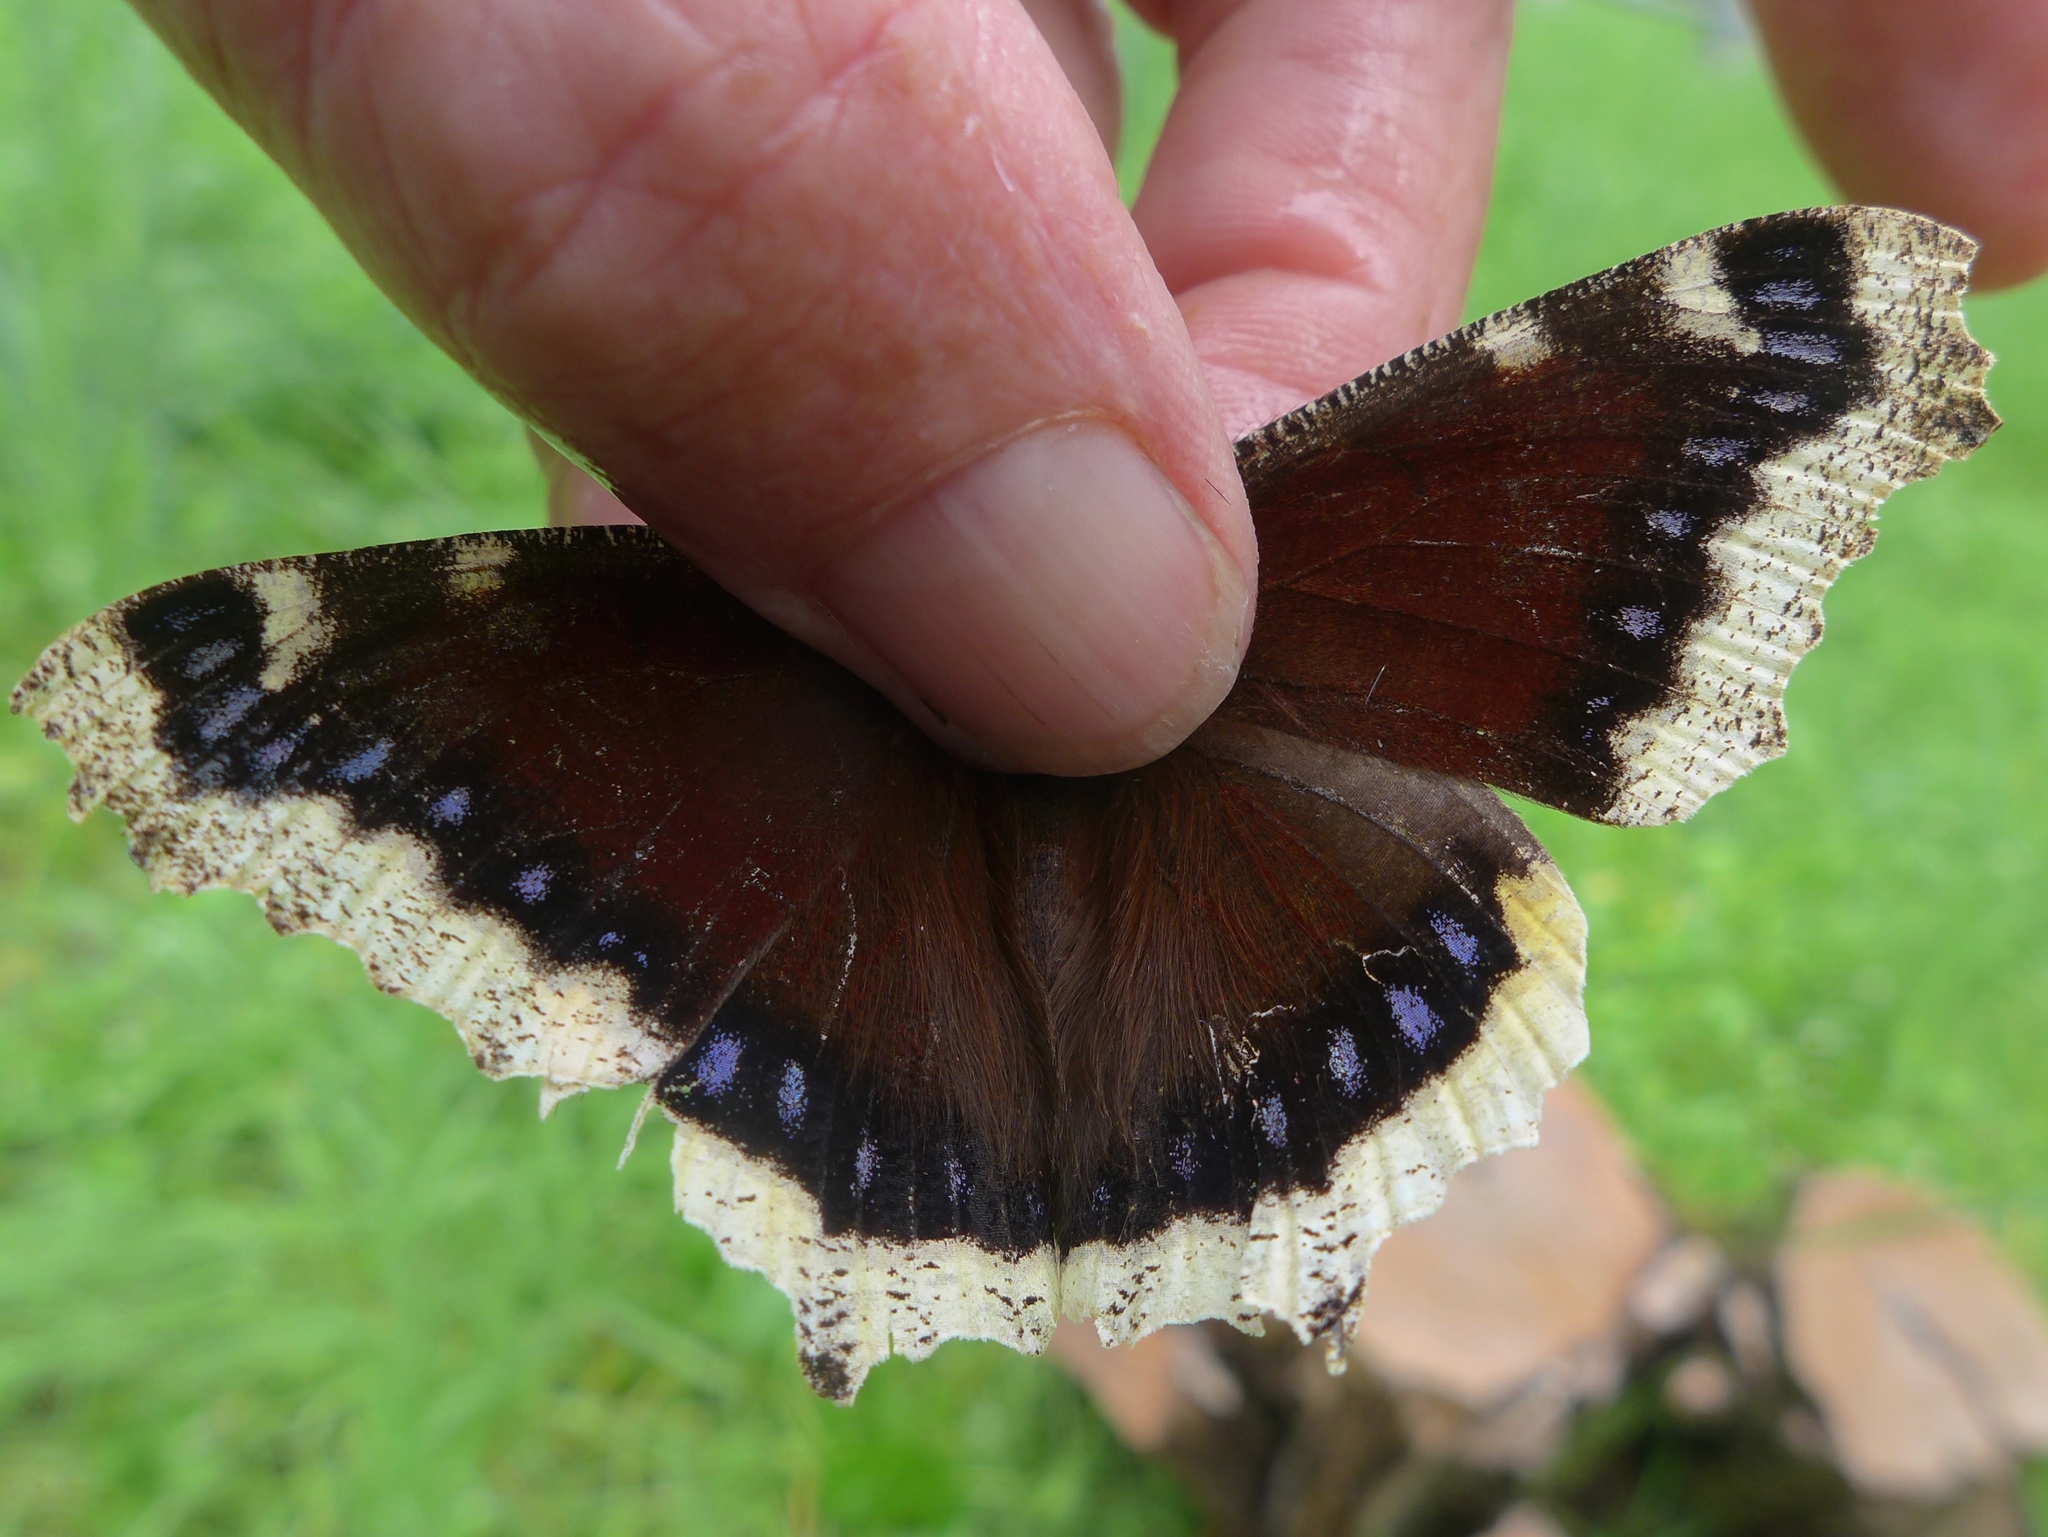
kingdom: Animalia
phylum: Arthropoda
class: Insecta
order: Lepidoptera
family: Nymphalidae
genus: Nymphalis
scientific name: Nymphalis antiopa
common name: Camberwell beauty
